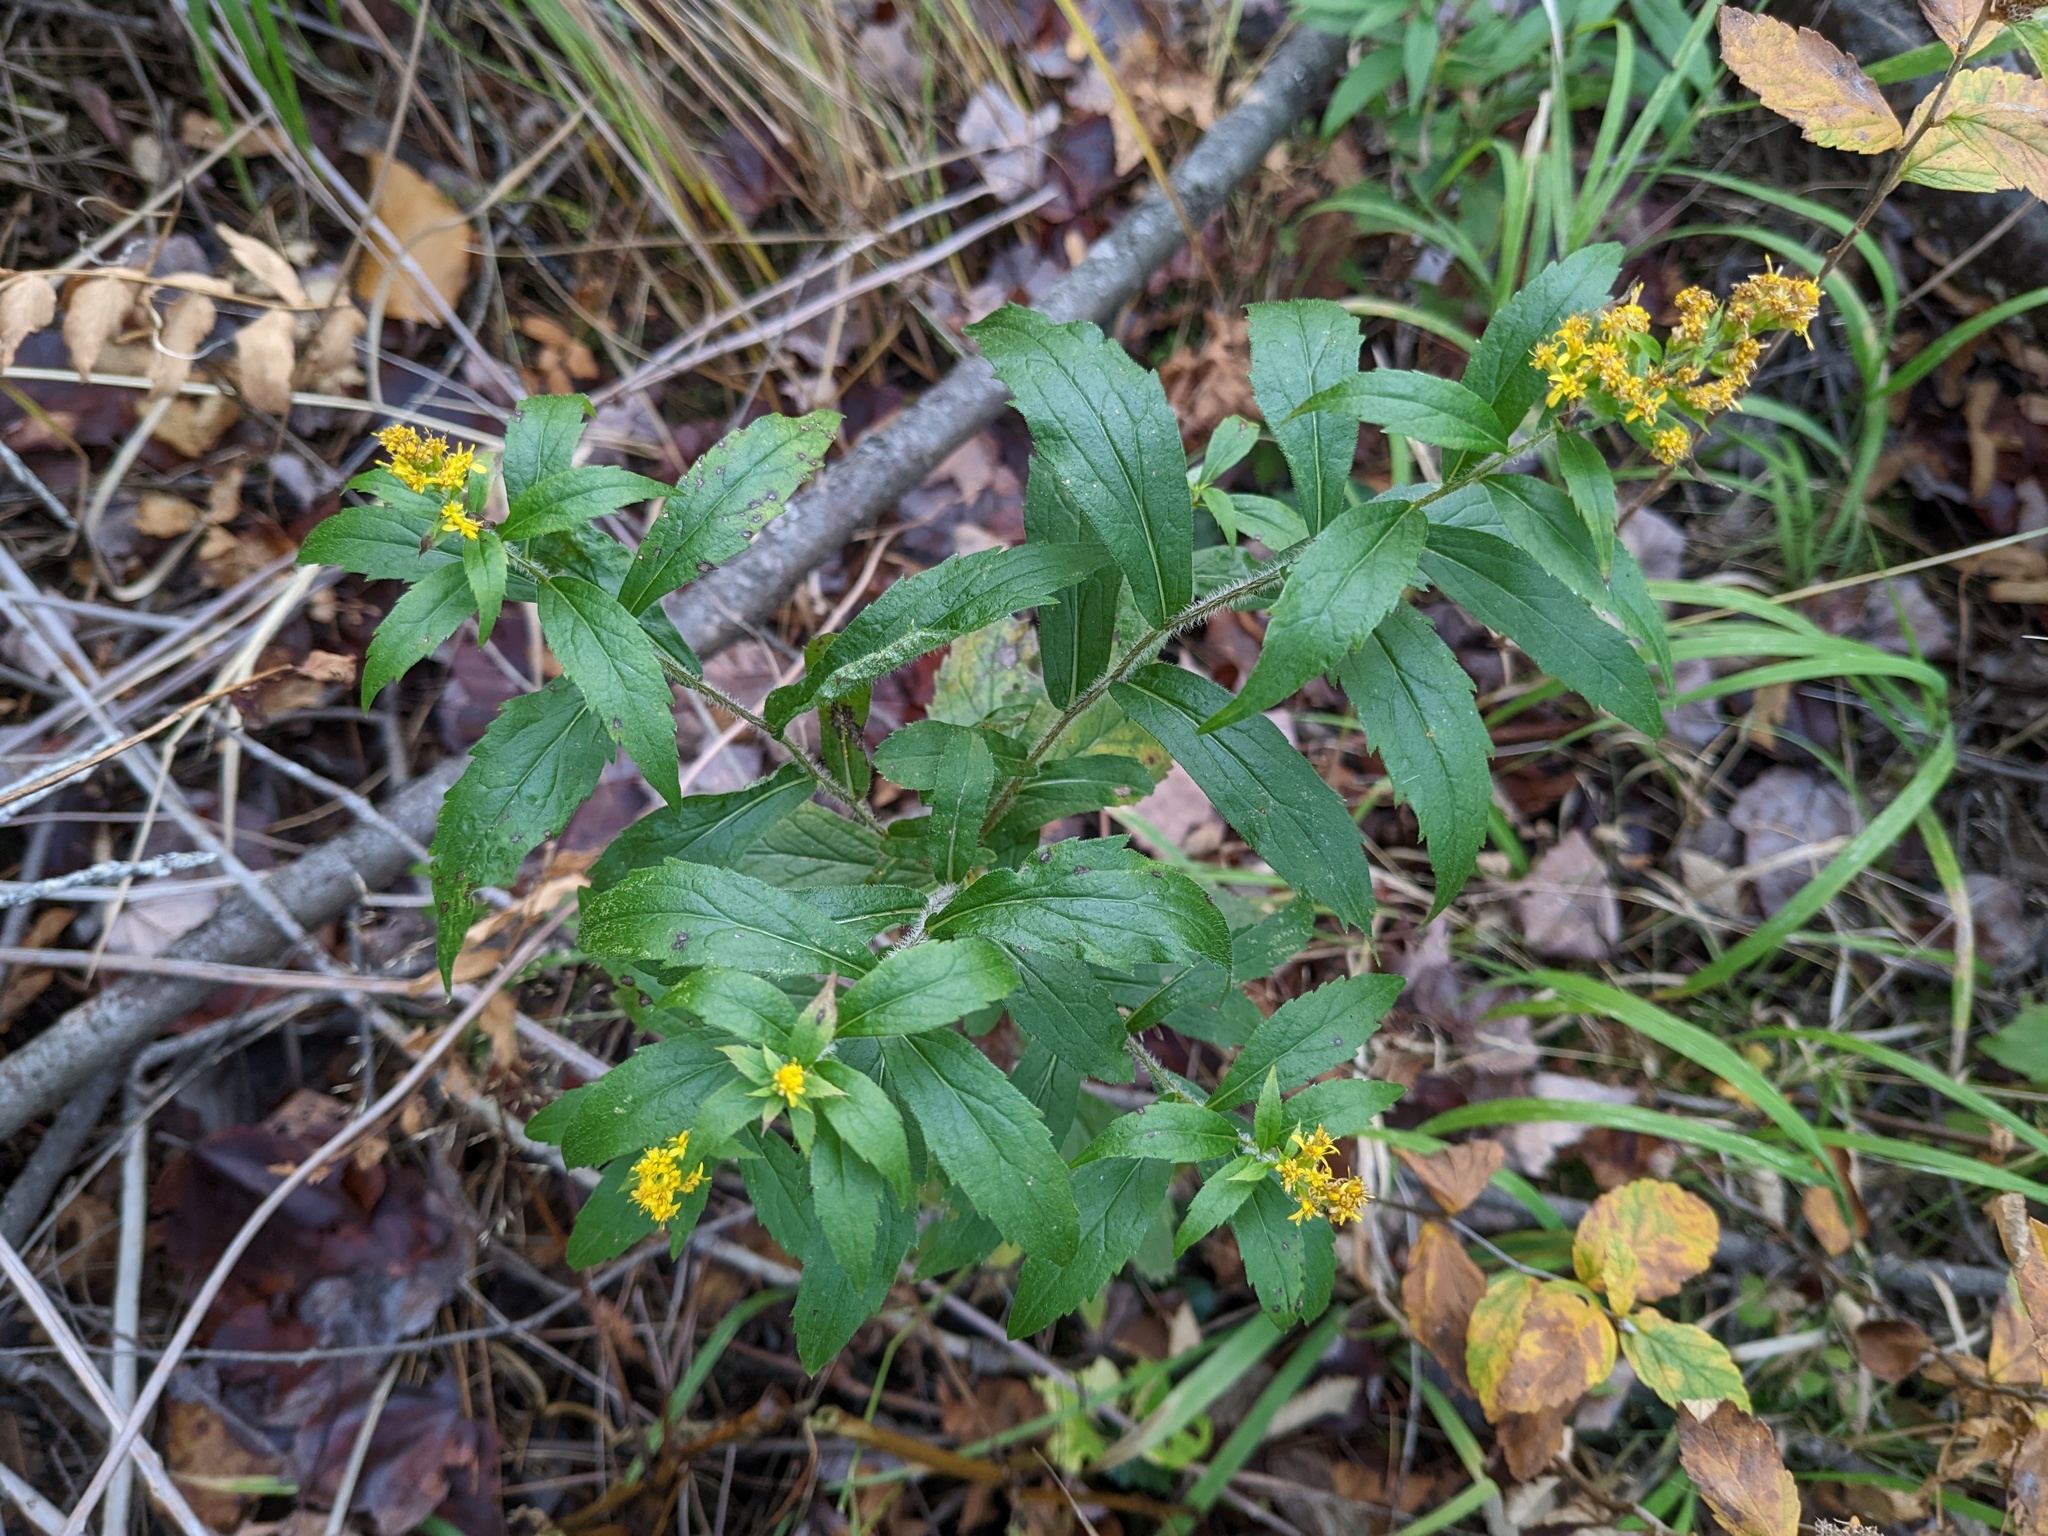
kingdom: Plantae
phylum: Tracheophyta
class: Magnoliopsida
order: Asterales
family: Asteraceae
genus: Solidago
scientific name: Solidago rugosa
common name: Rough-stemmed goldenrod
